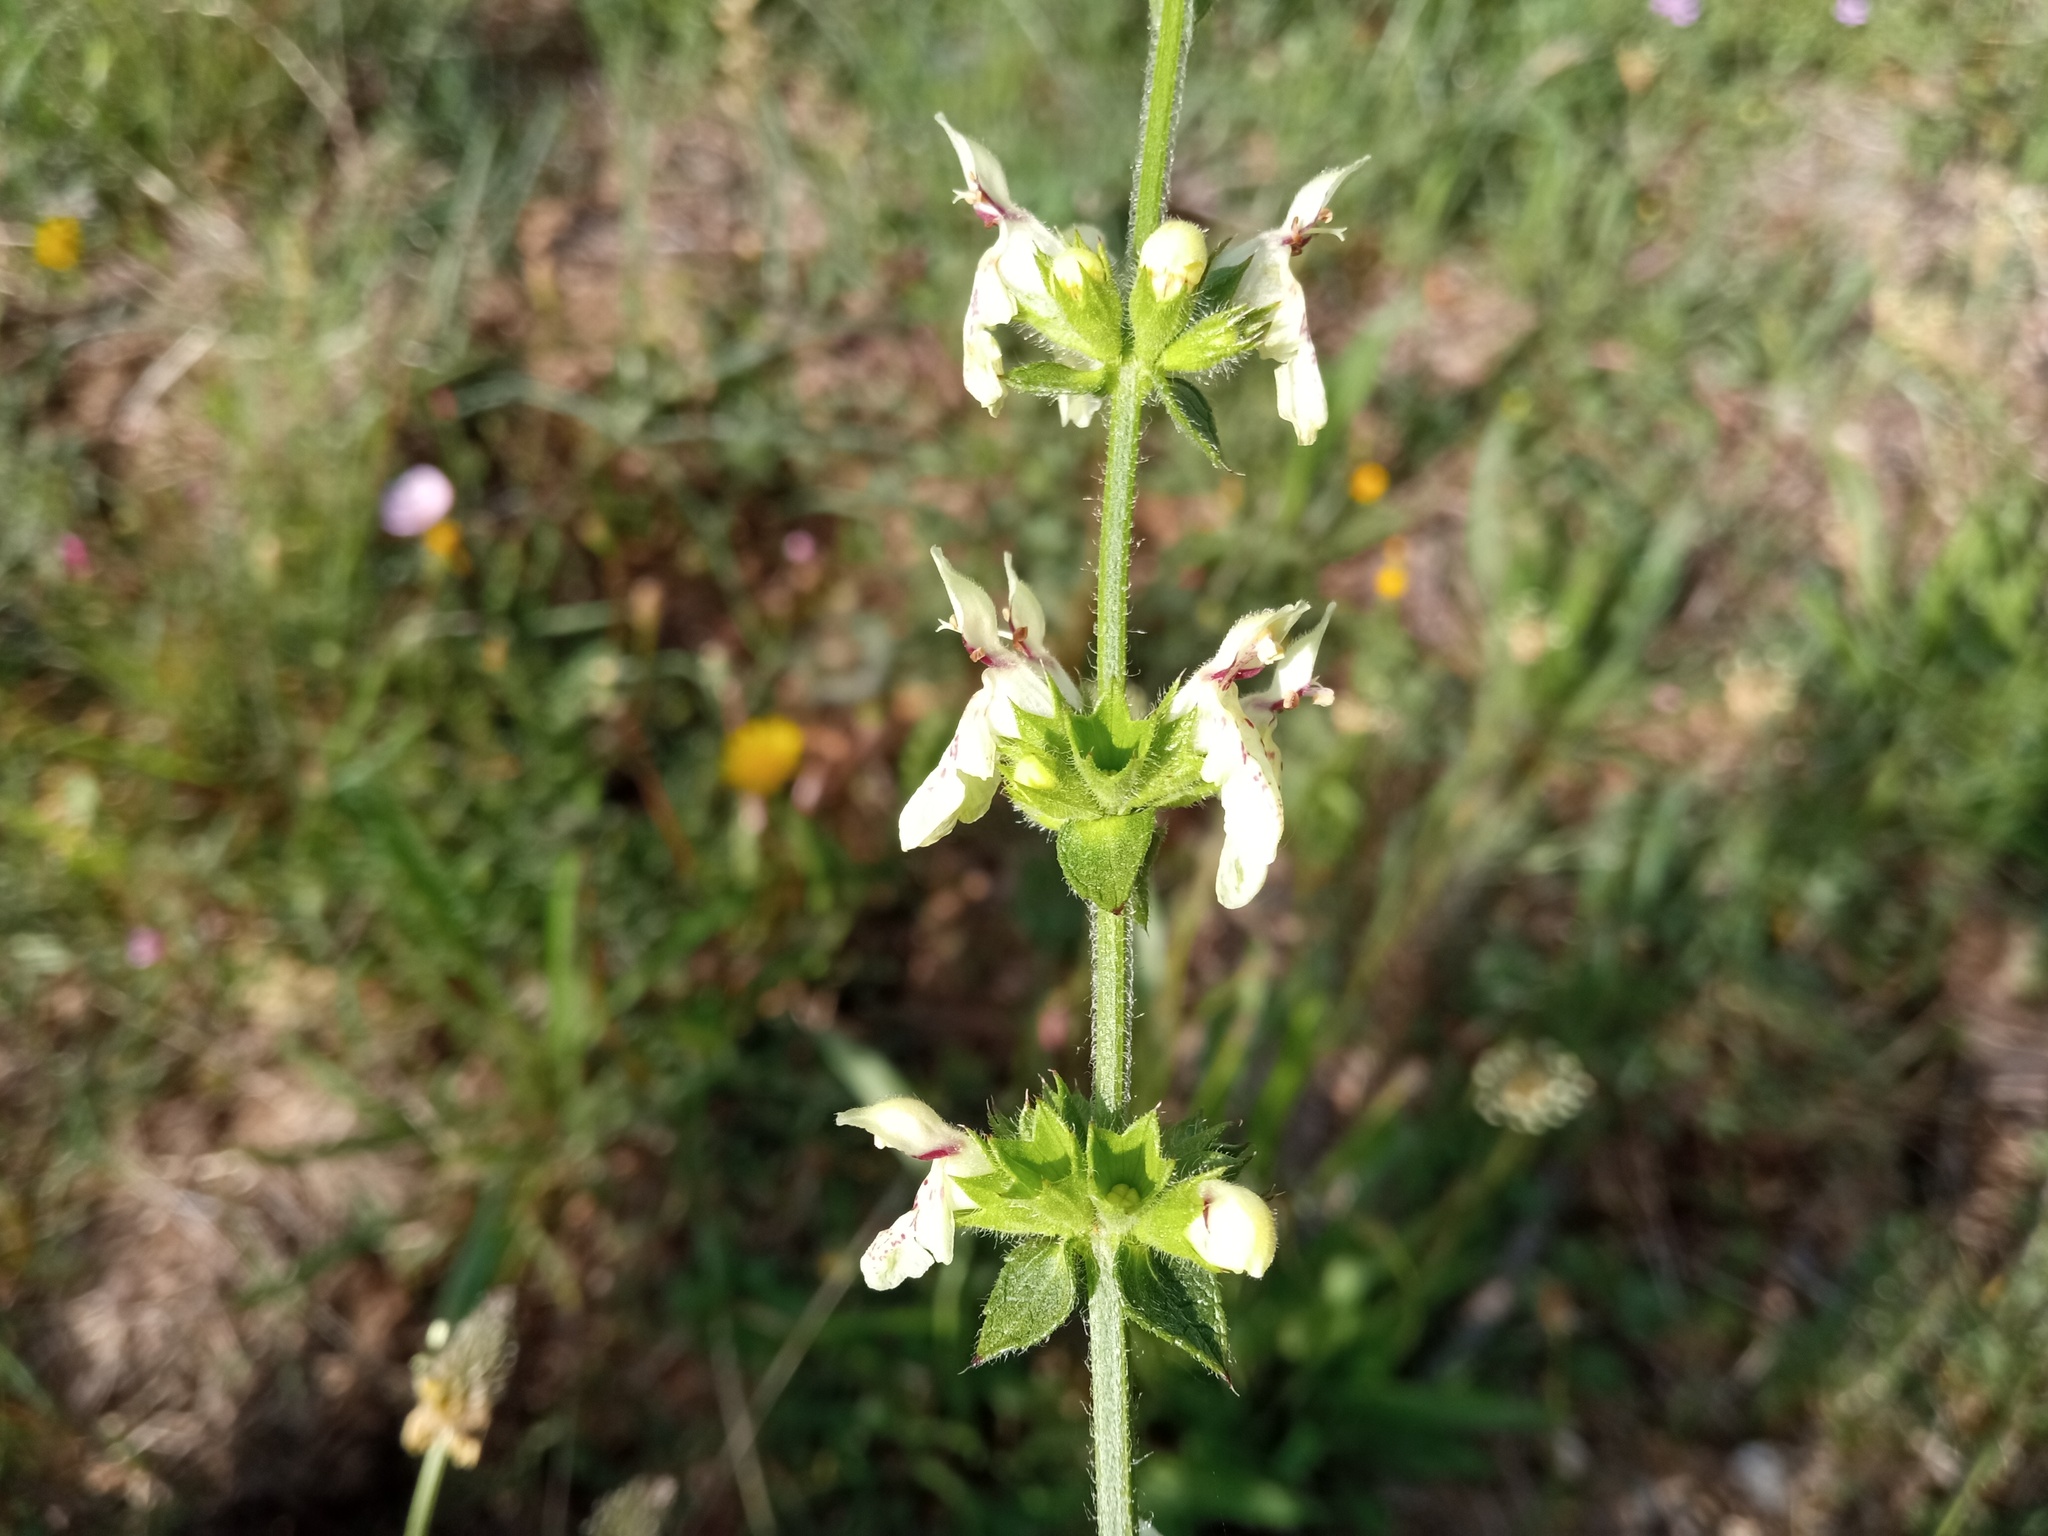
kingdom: Plantae
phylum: Tracheophyta
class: Magnoliopsida
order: Lamiales
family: Lamiaceae
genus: Stachys
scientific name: Stachys recta
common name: Perennial yellow-woundwort
